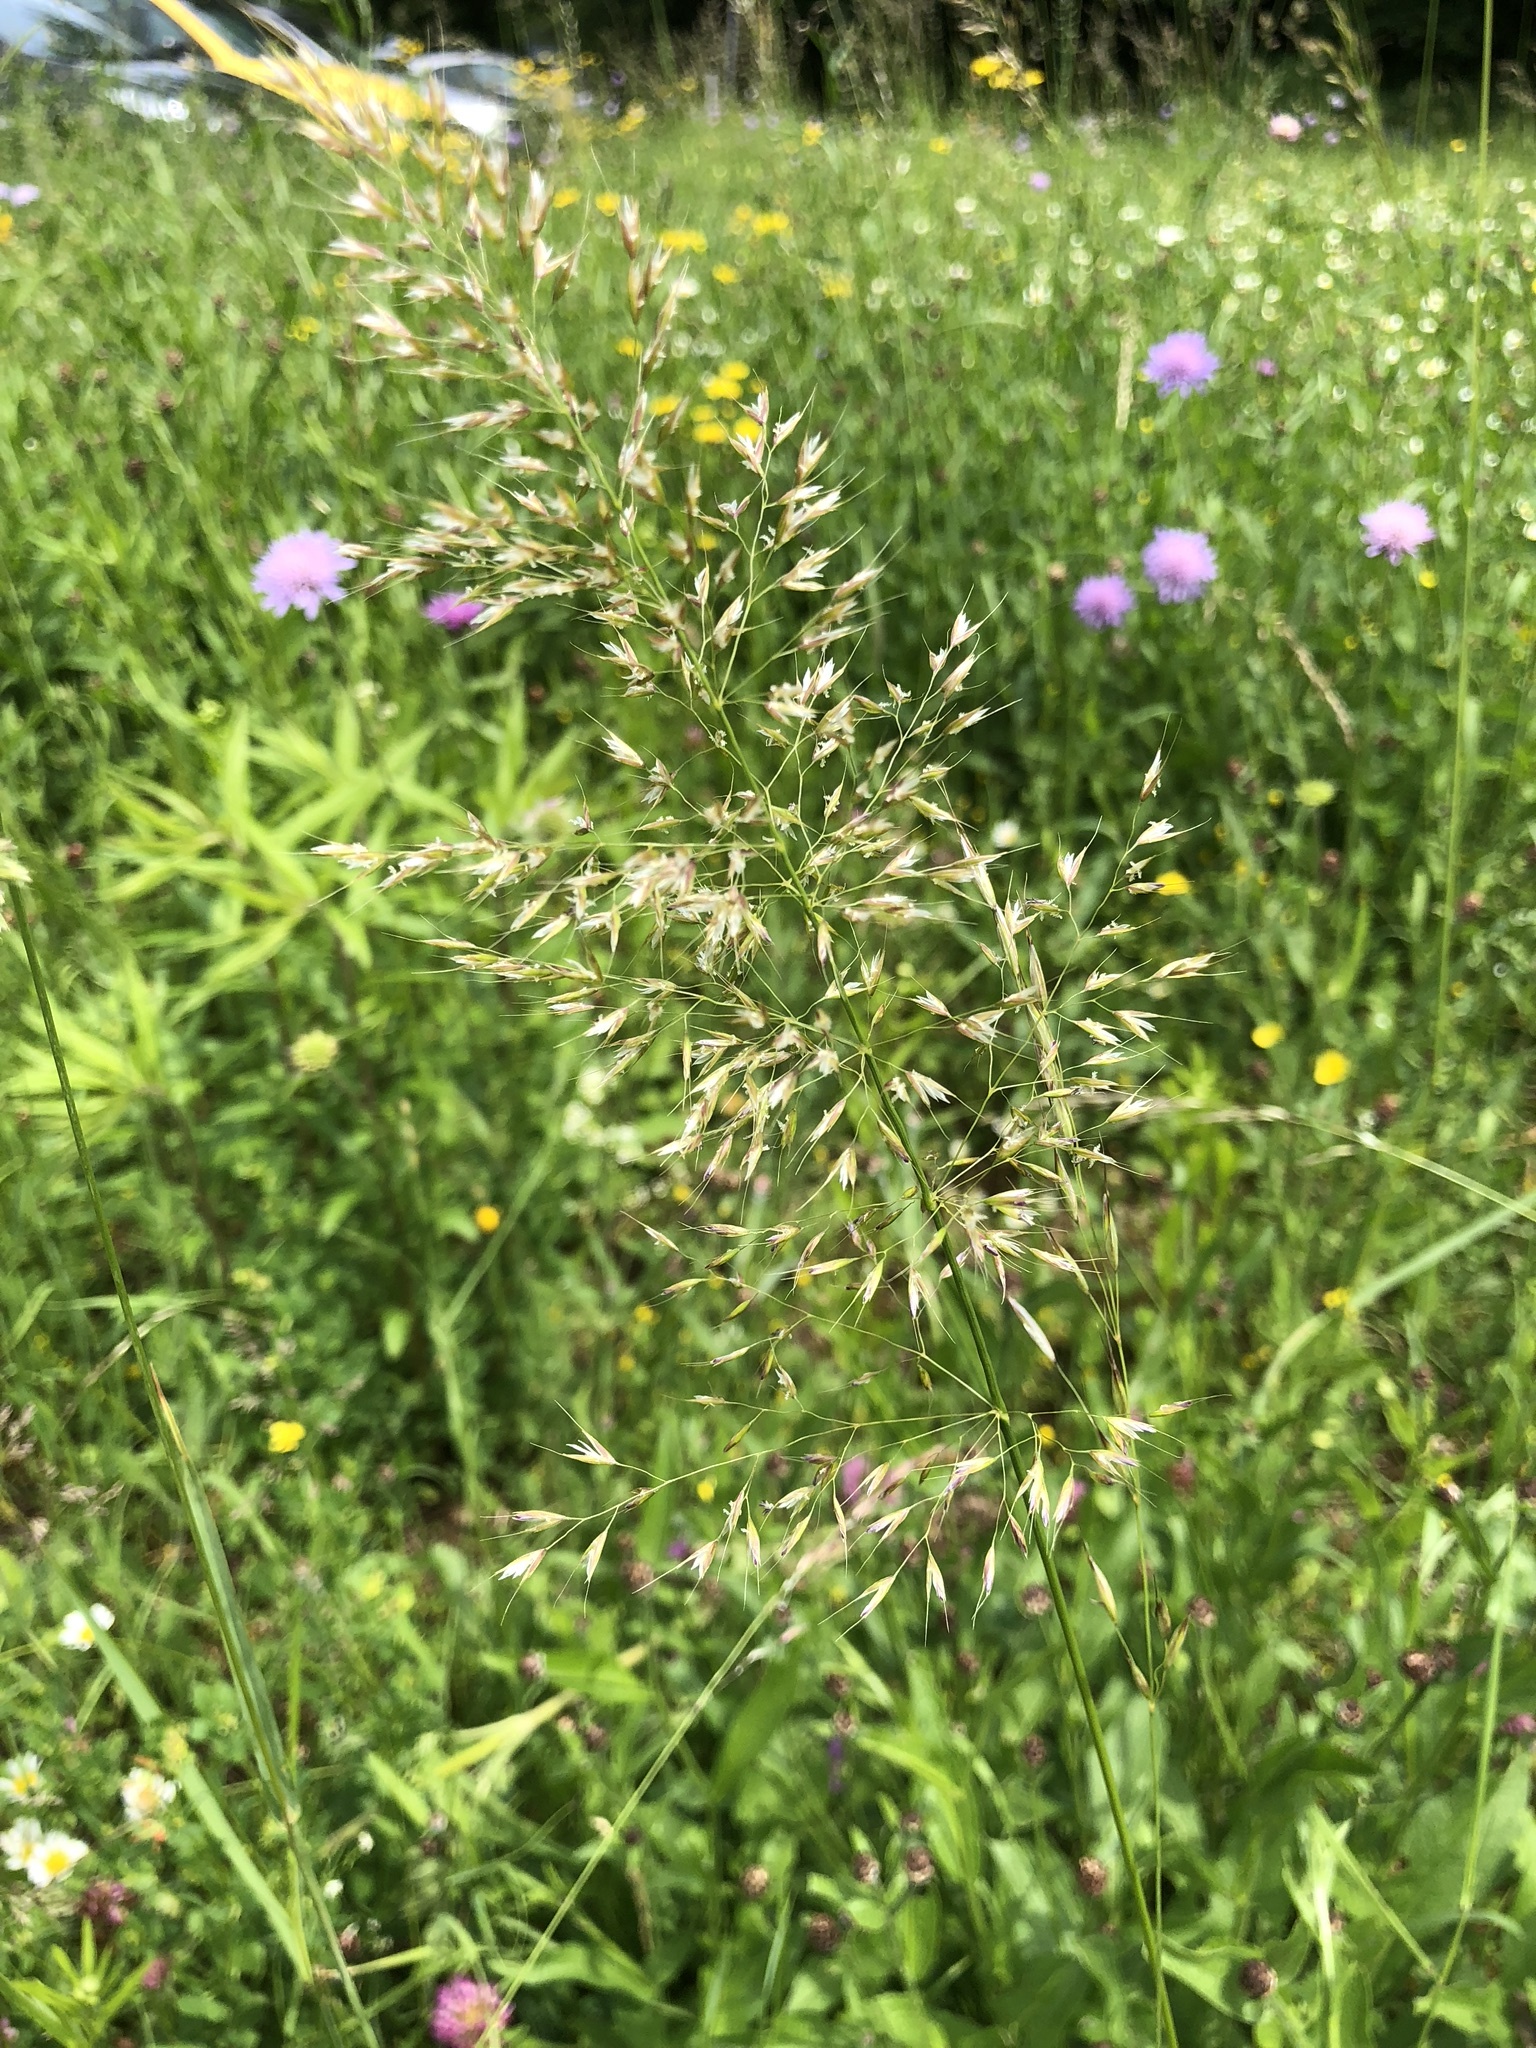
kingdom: Plantae
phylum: Tracheophyta
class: Liliopsida
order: Poales
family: Poaceae
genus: Trisetum
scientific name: Trisetum flavescens
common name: Yellow oat-grass
